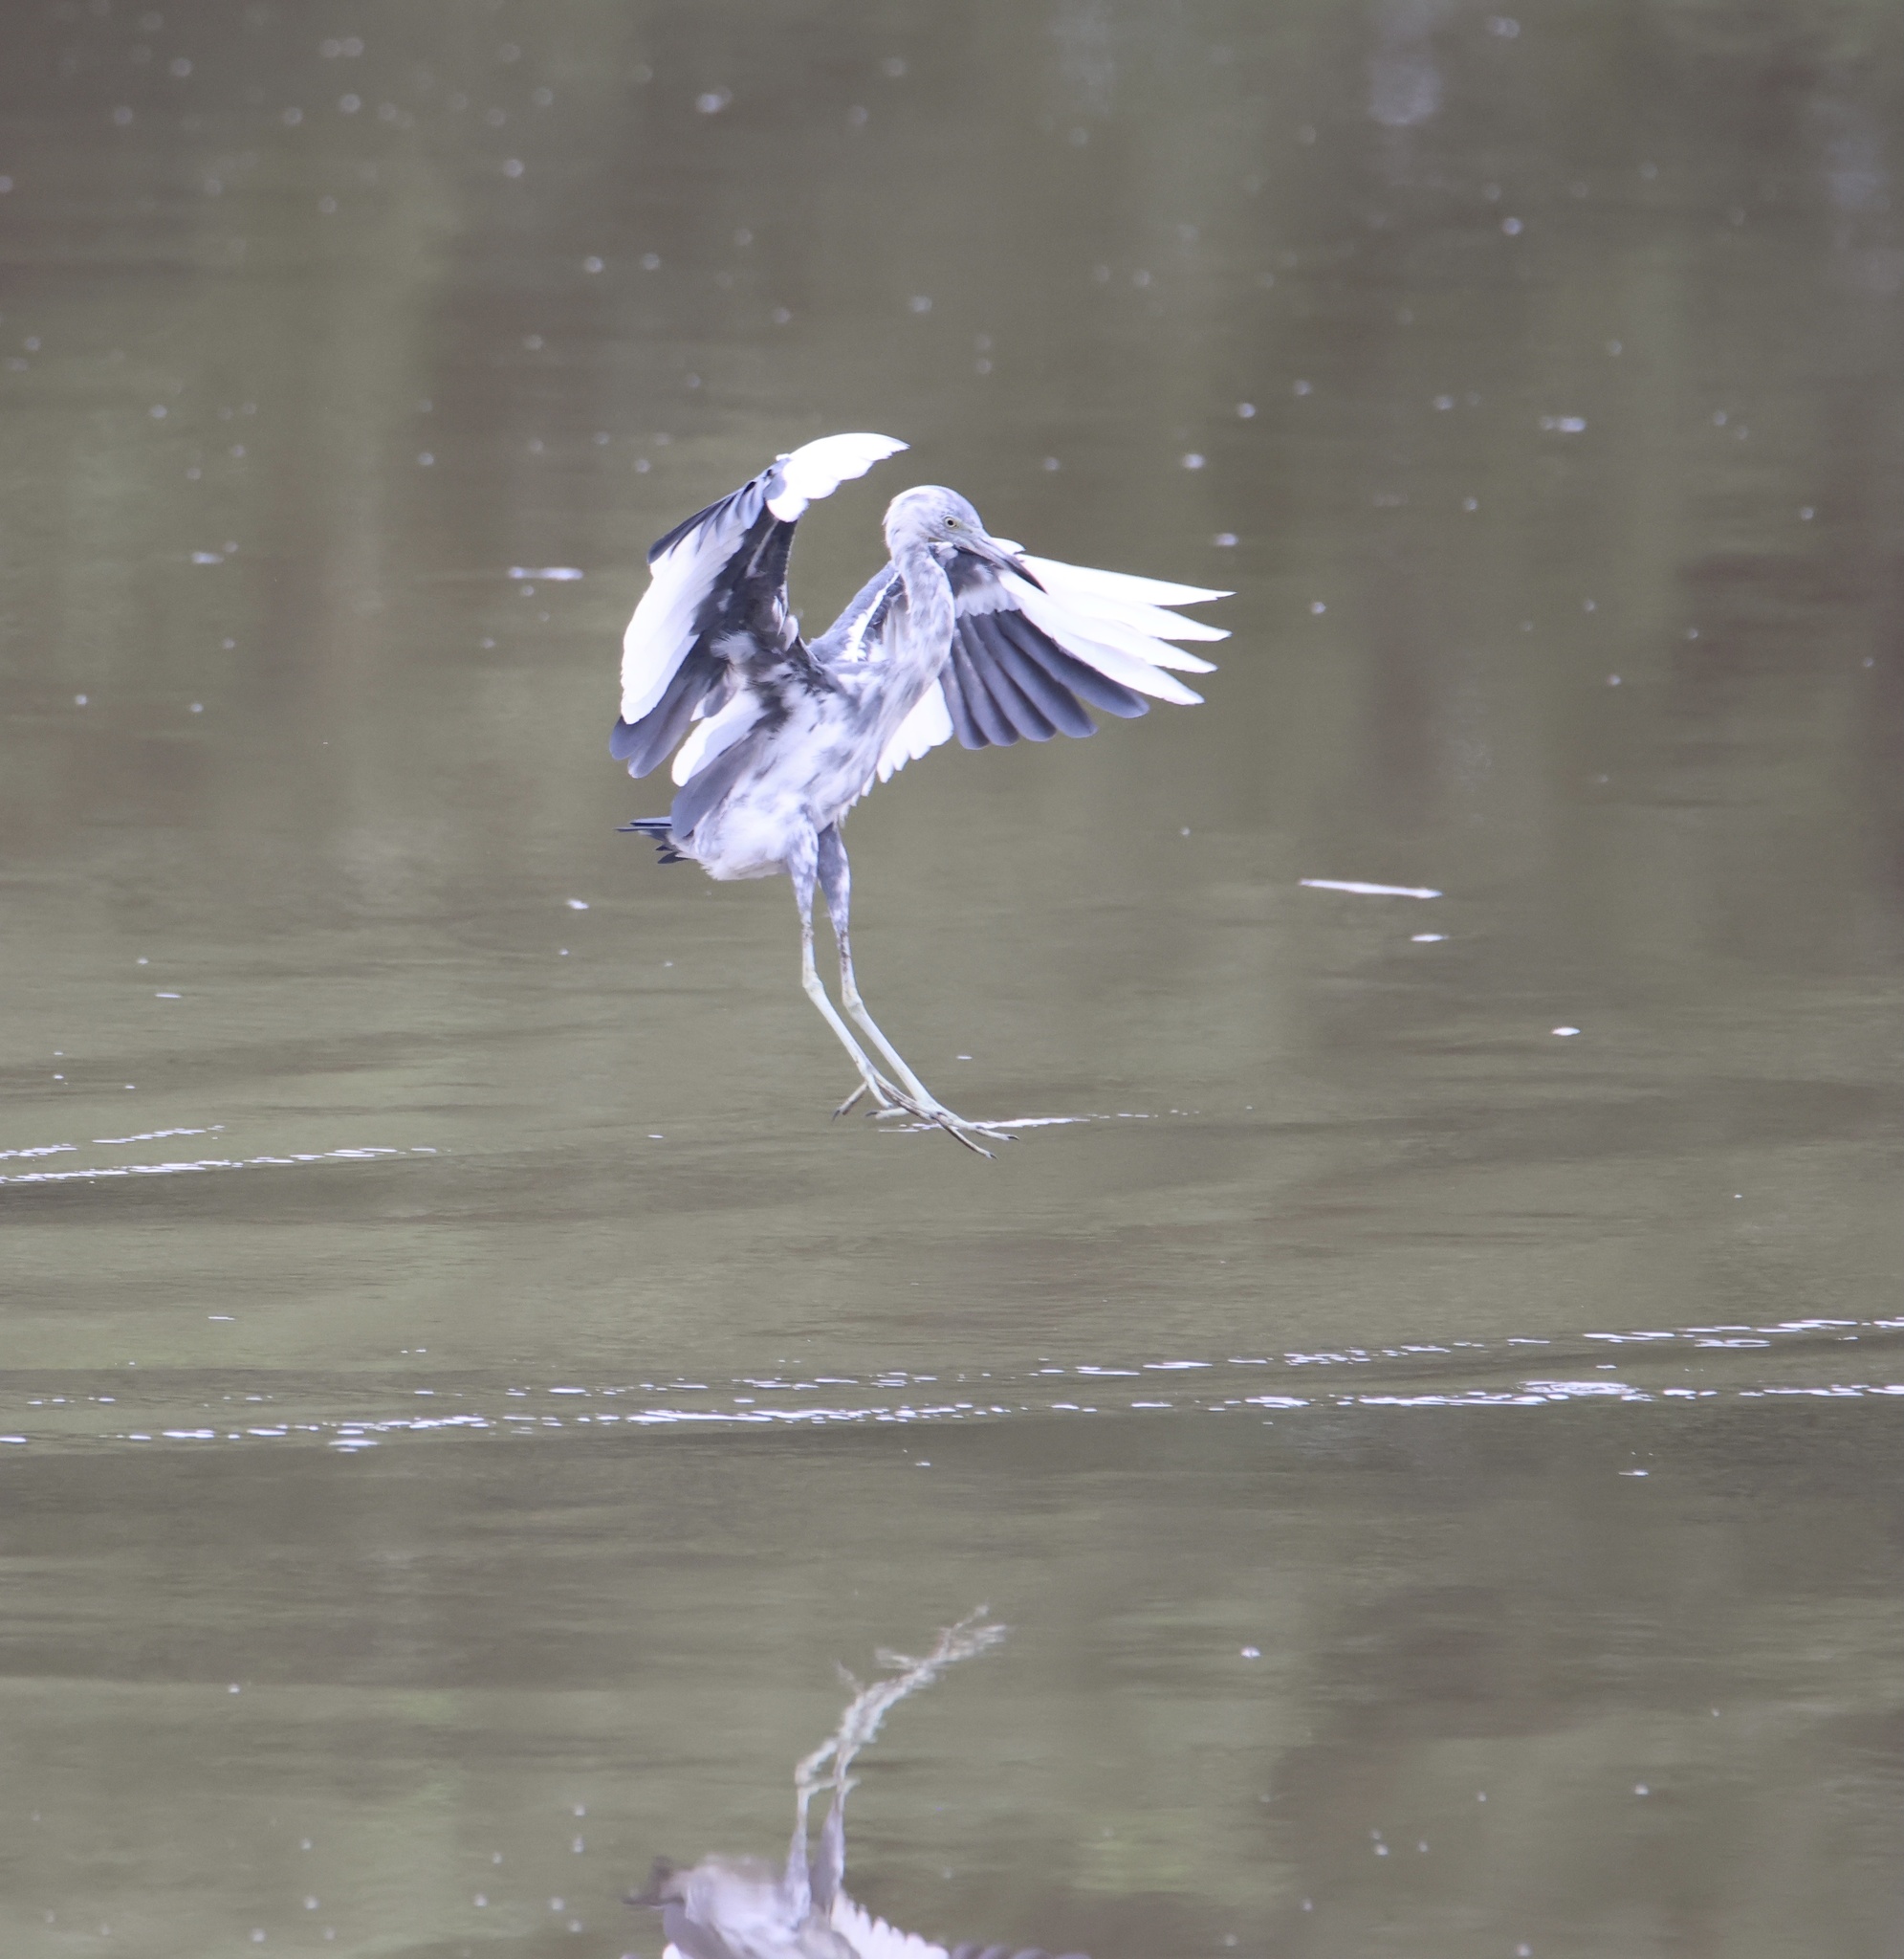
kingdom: Animalia
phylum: Chordata
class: Aves
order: Pelecaniformes
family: Ardeidae
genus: Egretta
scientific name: Egretta caerulea
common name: Little blue heron
